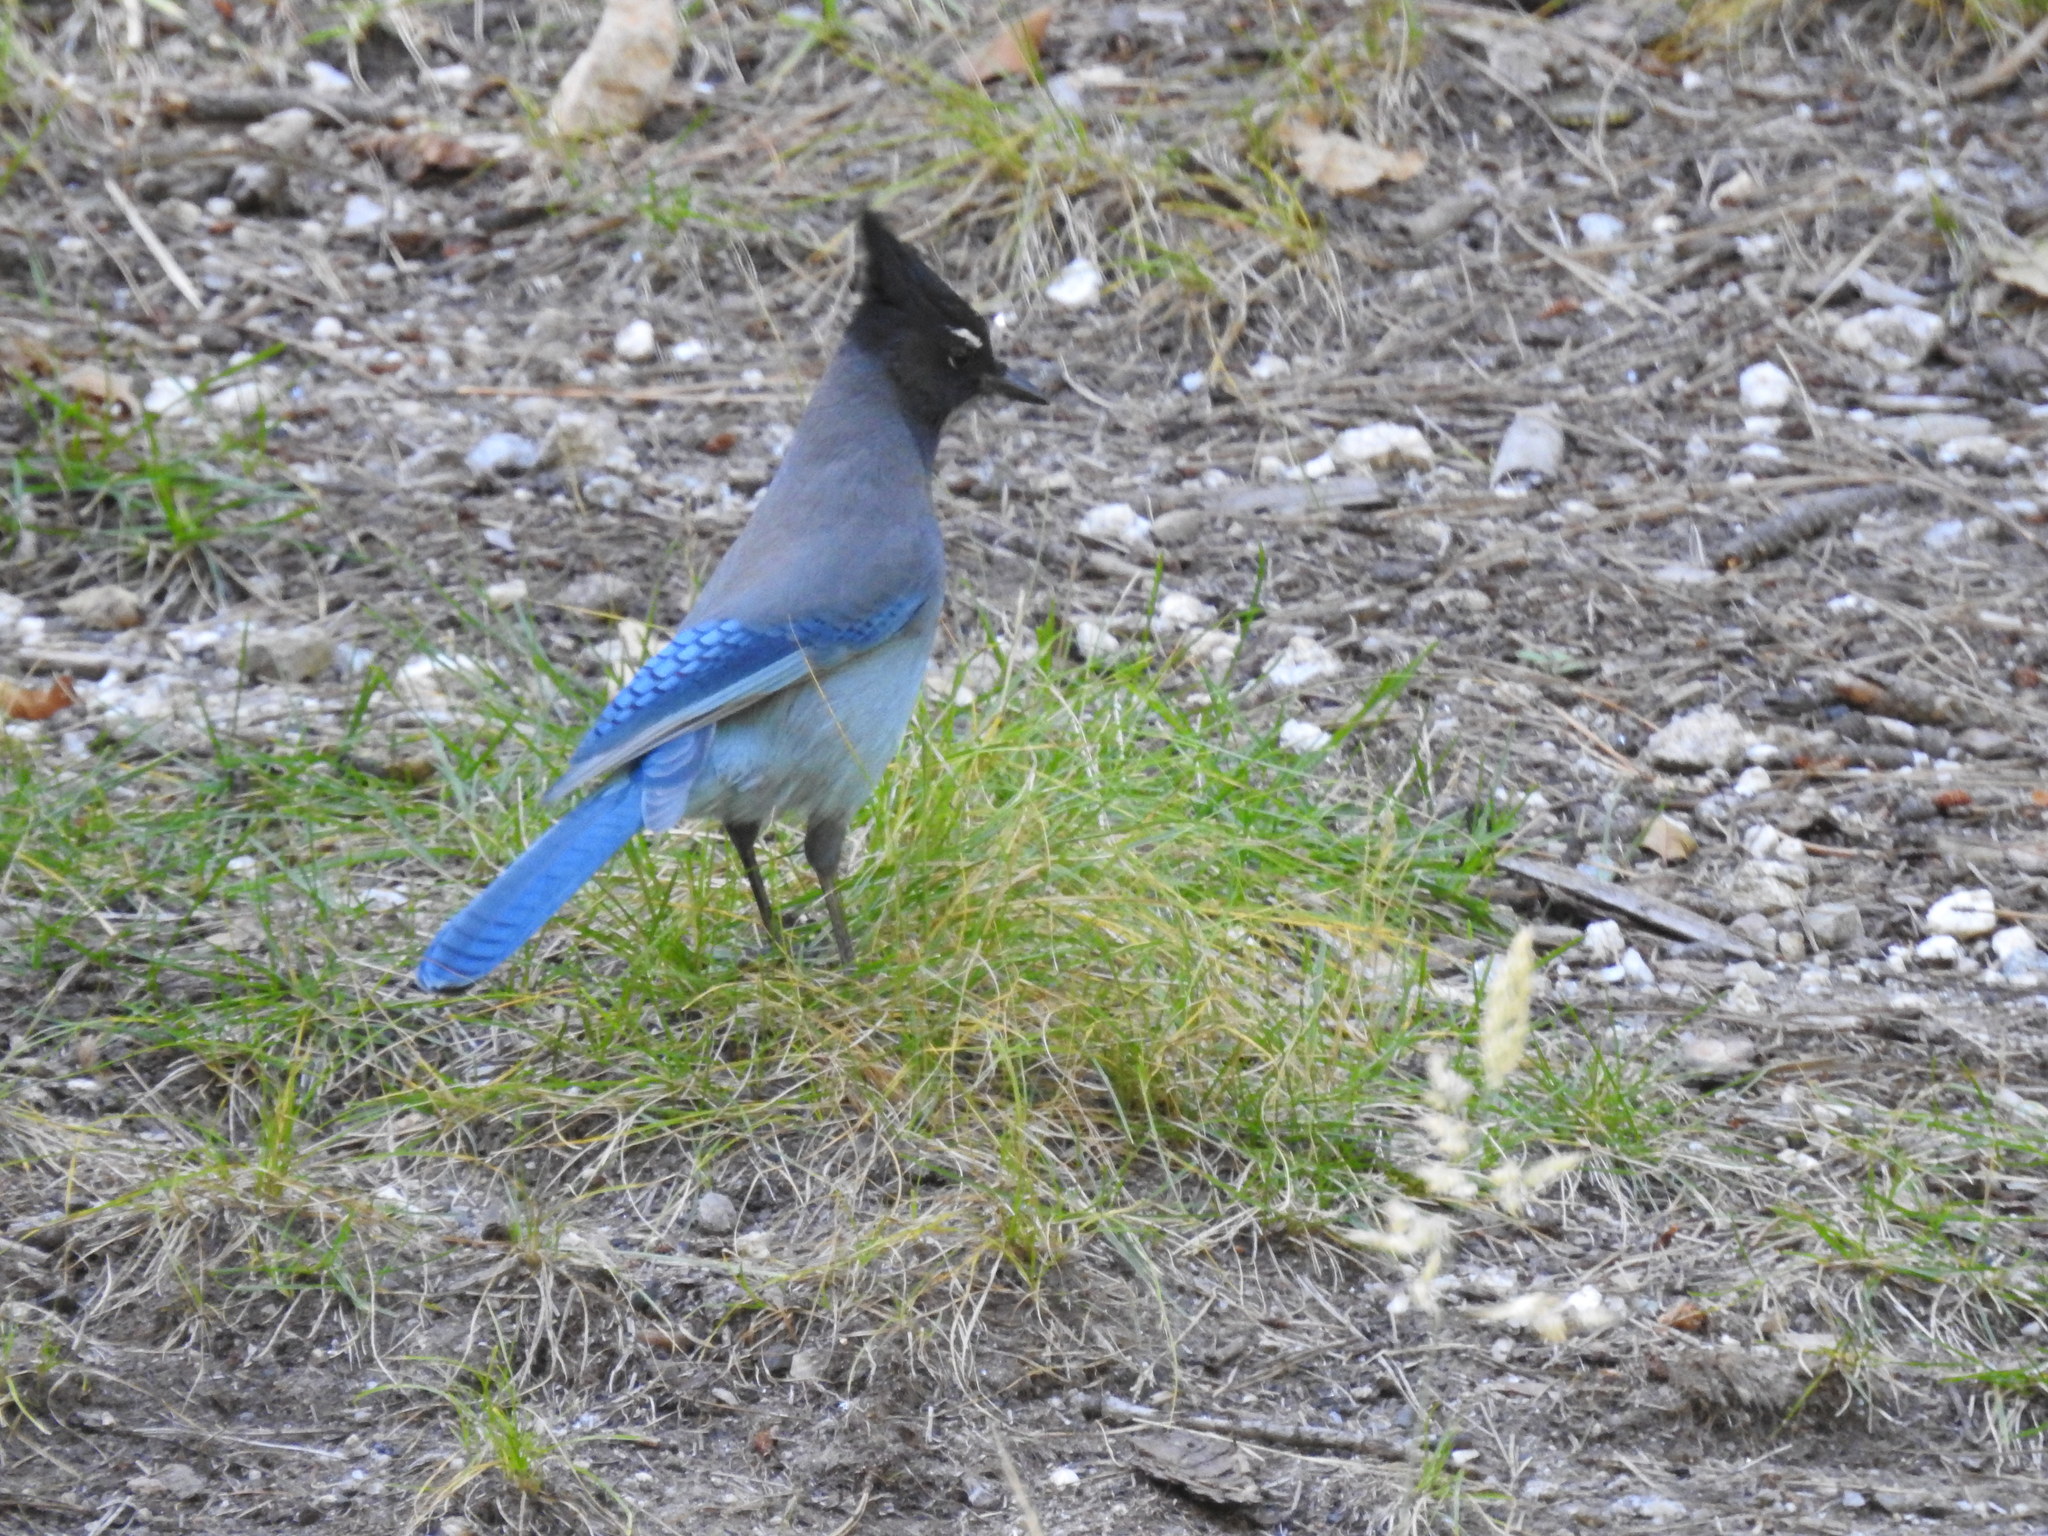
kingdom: Animalia
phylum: Chordata
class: Aves
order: Passeriformes
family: Corvidae
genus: Cyanocitta
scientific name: Cyanocitta stelleri
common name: Steller's jay
